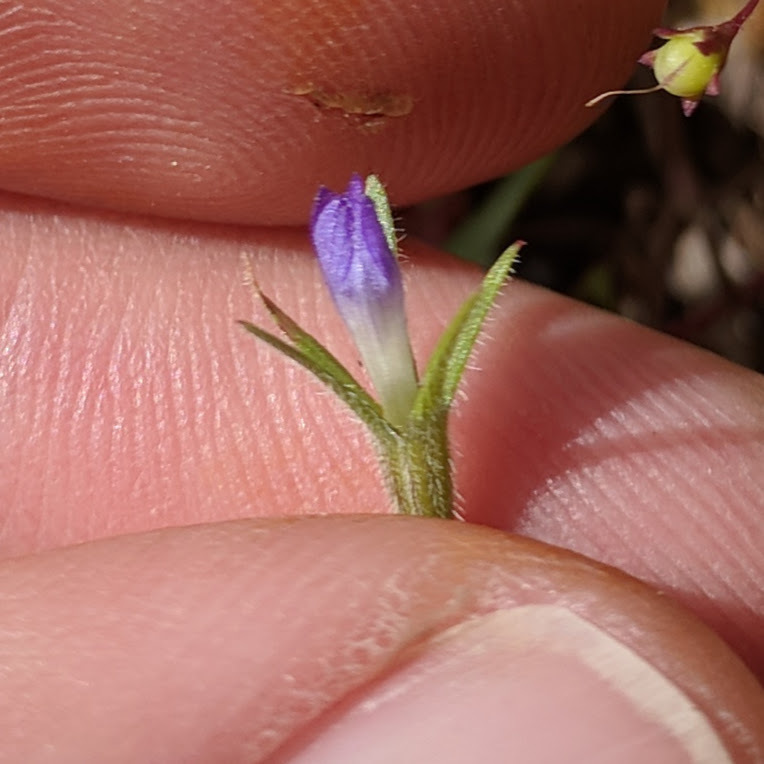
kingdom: Plantae
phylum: Tracheophyta
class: Magnoliopsida
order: Asterales
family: Campanulaceae
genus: Githopsis
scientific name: Githopsis specularioides
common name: Common bluecup
